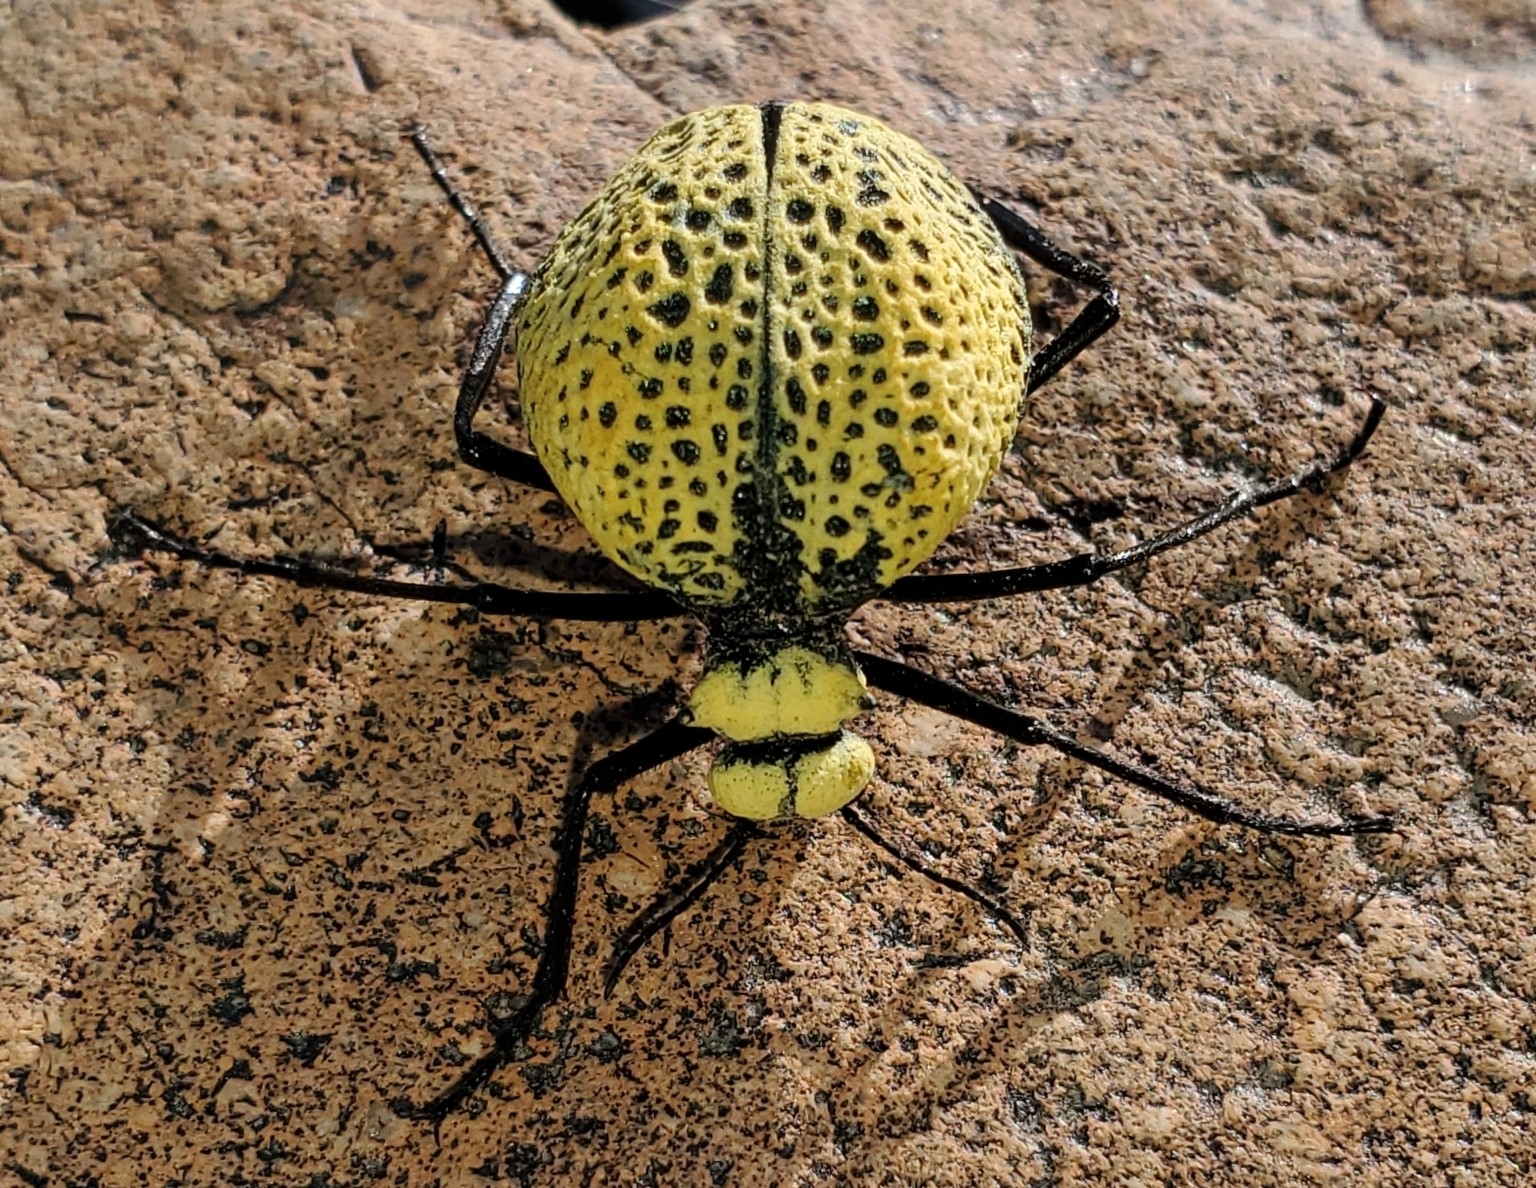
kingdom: Animalia
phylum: Arthropoda
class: Insecta
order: Coleoptera
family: Meloidae
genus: Cysteodemus
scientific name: Cysteodemus armatus
